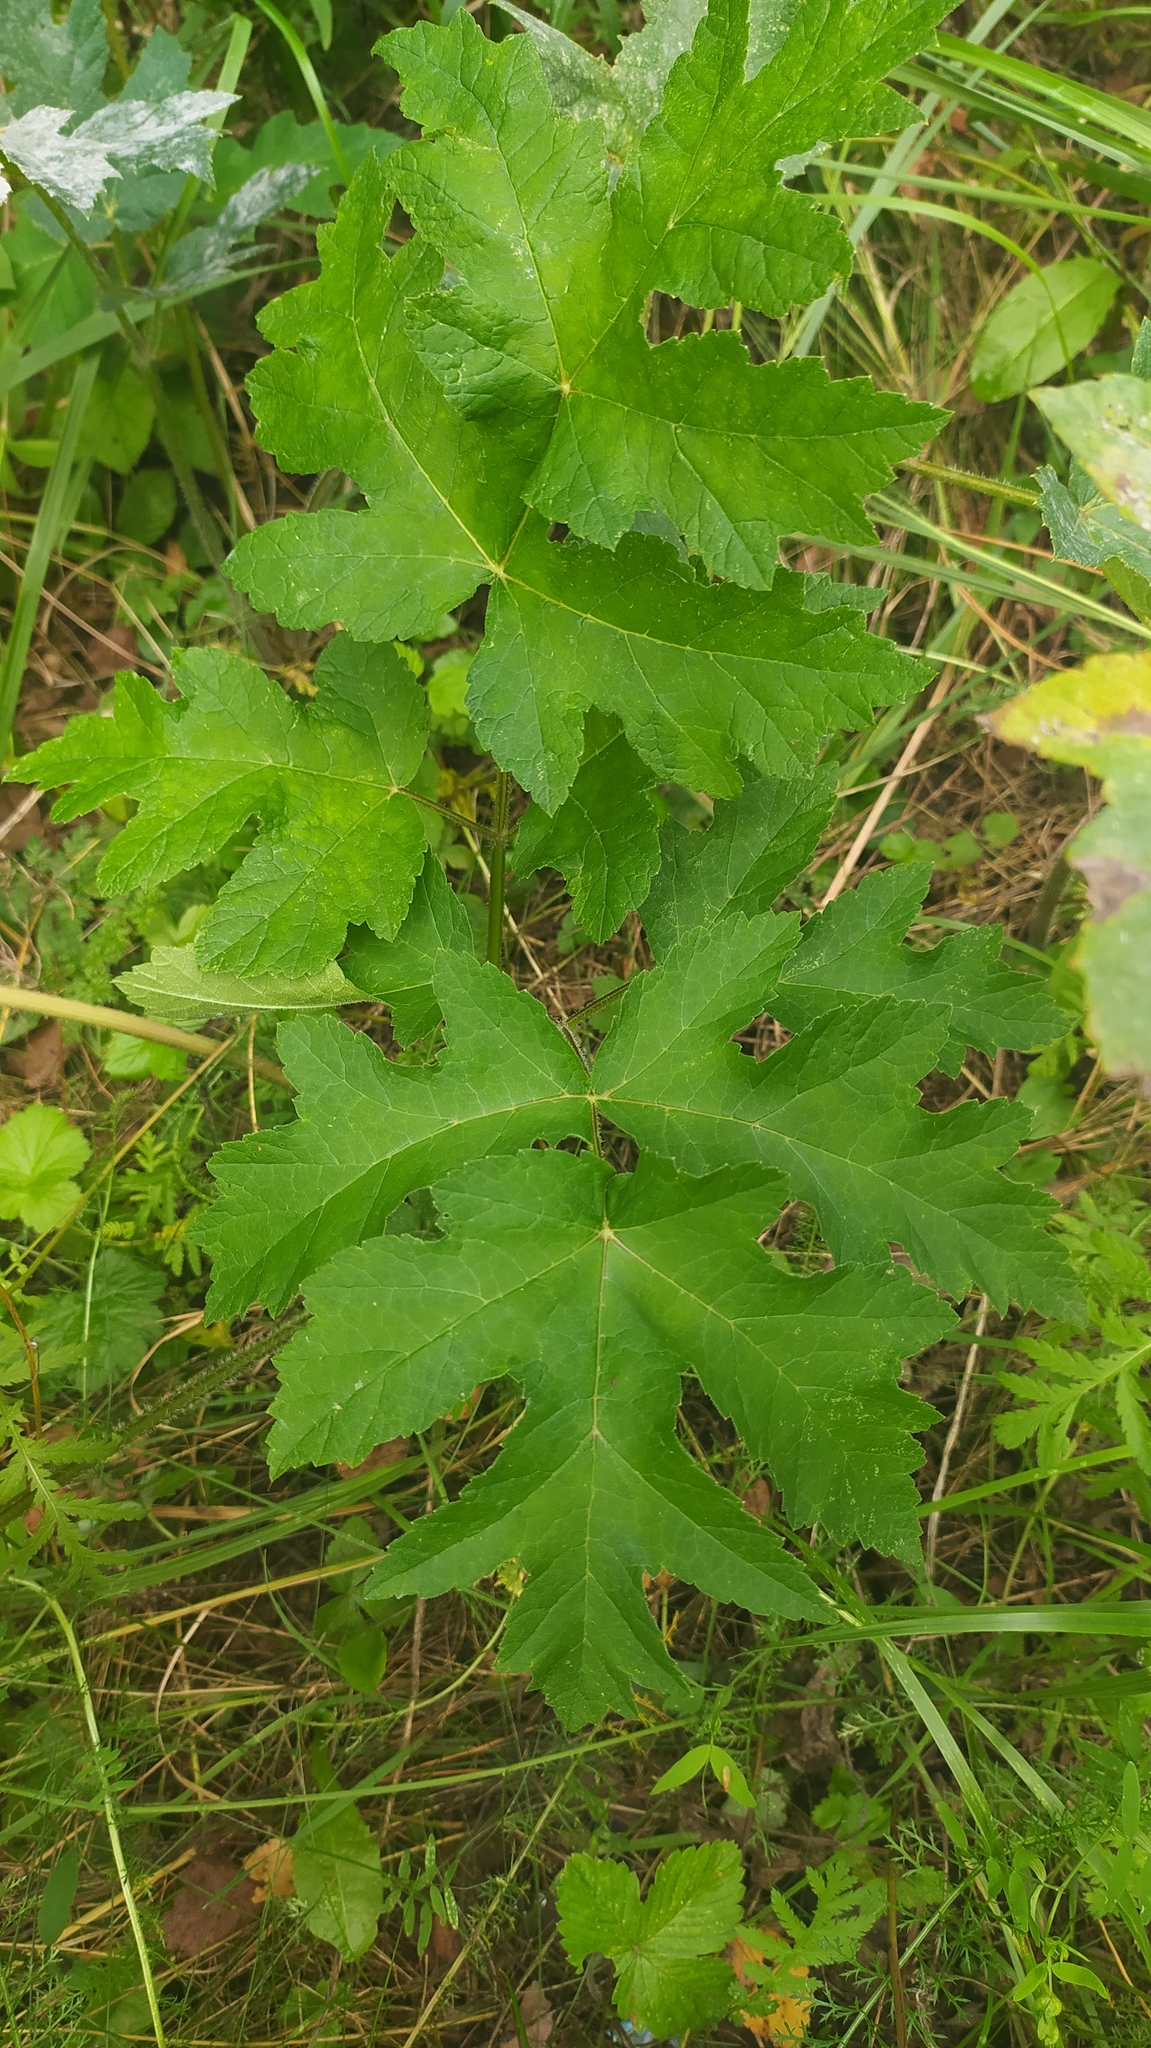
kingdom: Plantae
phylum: Tracheophyta
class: Magnoliopsida
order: Apiales
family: Apiaceae
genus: Heracleum
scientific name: Heracleum sphondylium
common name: Hogweed
